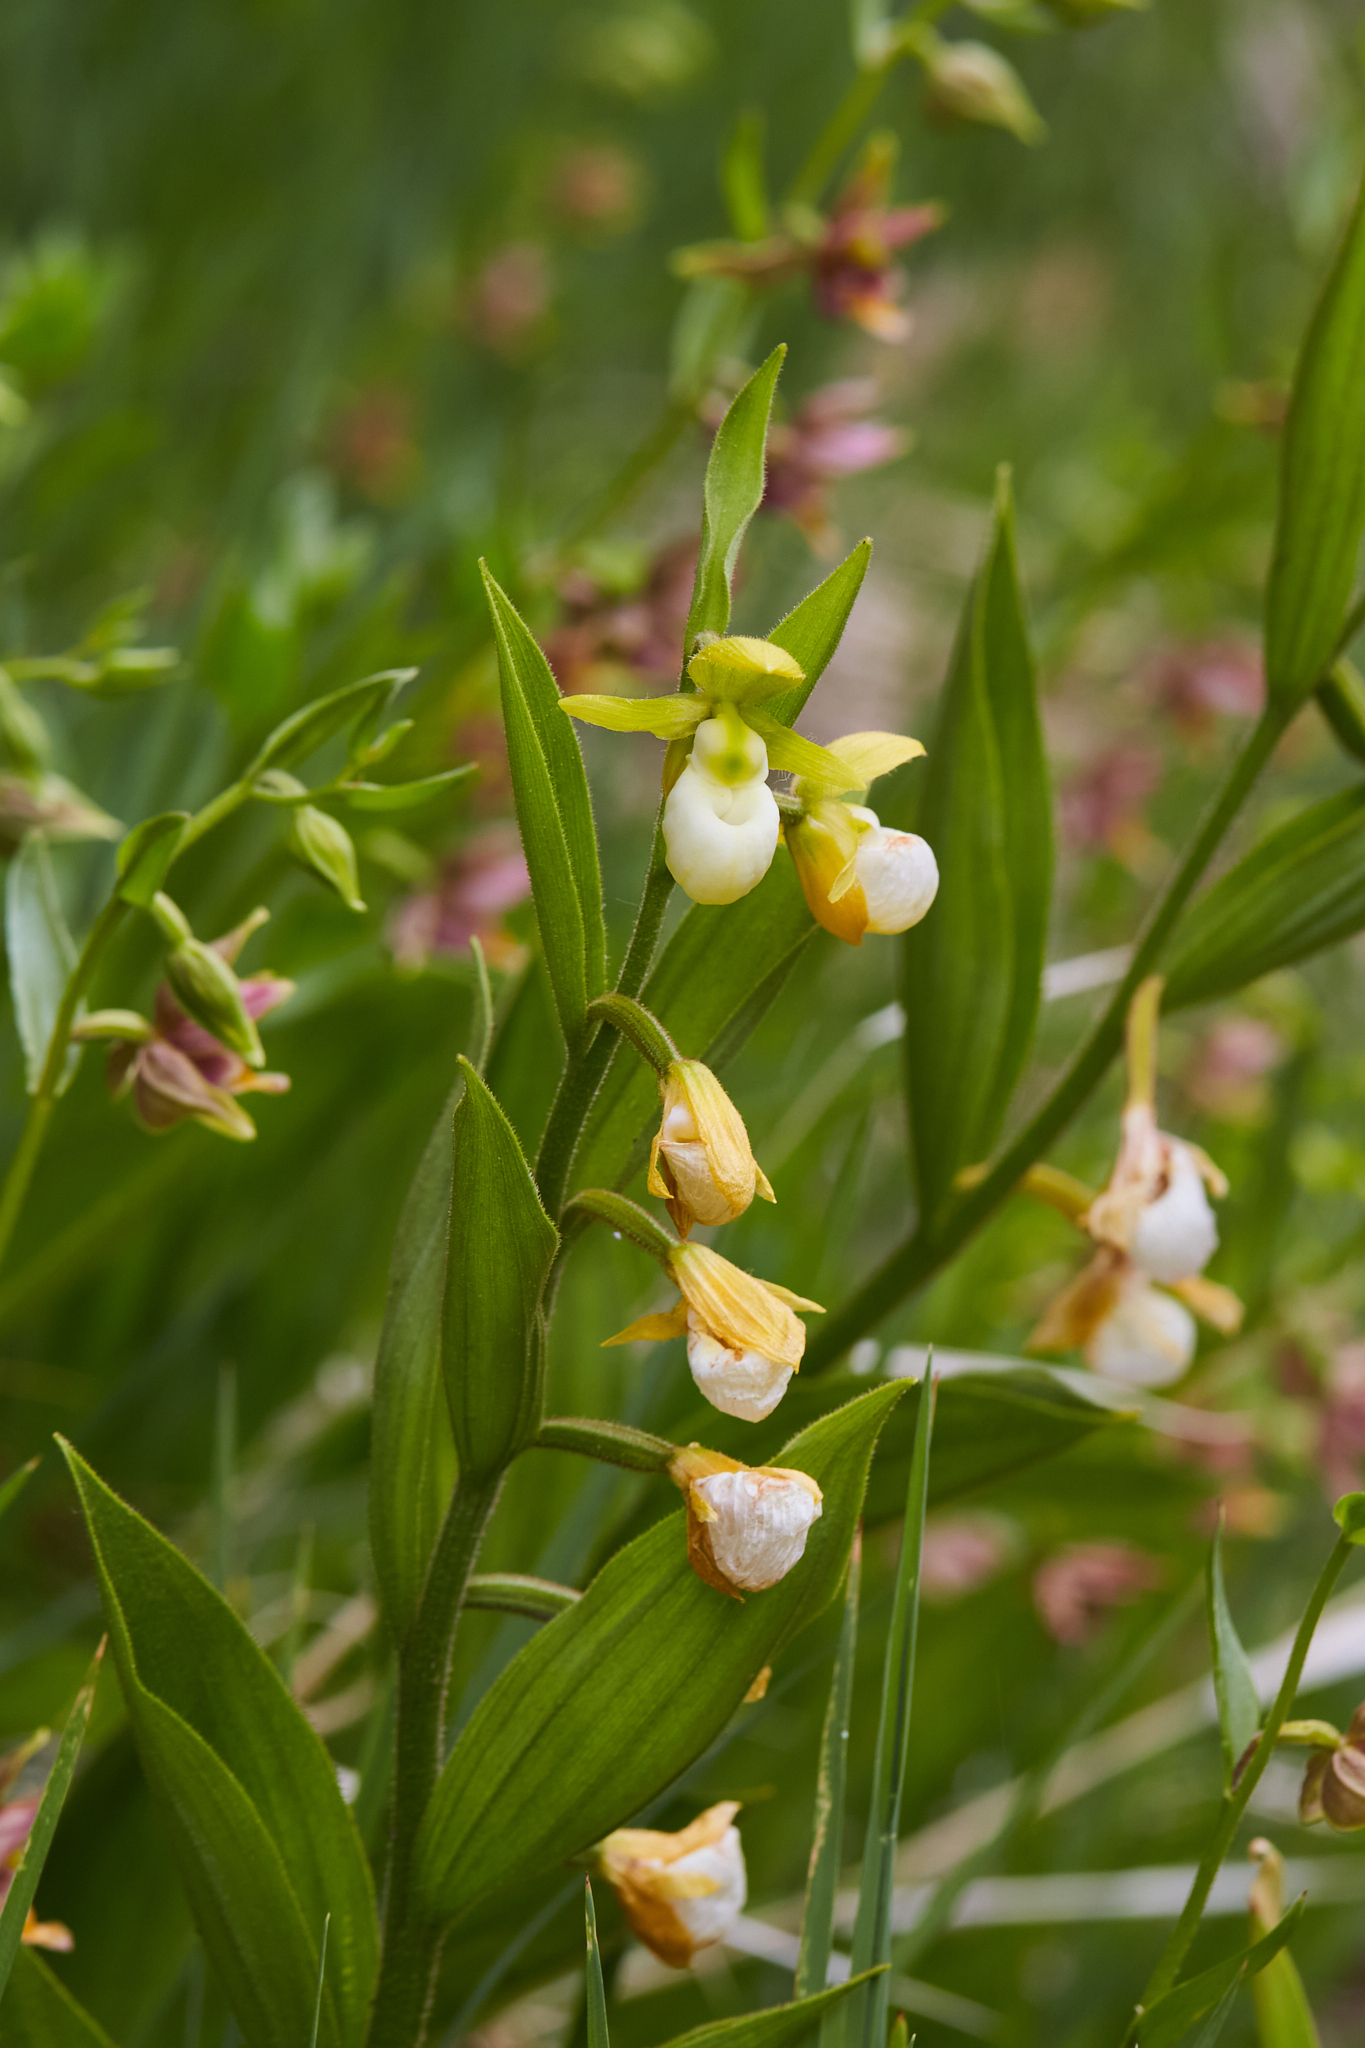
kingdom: Plantae
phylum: Tracheophyta
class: Liliopsida
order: Asparagales
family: Orchidaceae
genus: Cypripedium
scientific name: Cypripedium californicum
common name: California lady's slipper
